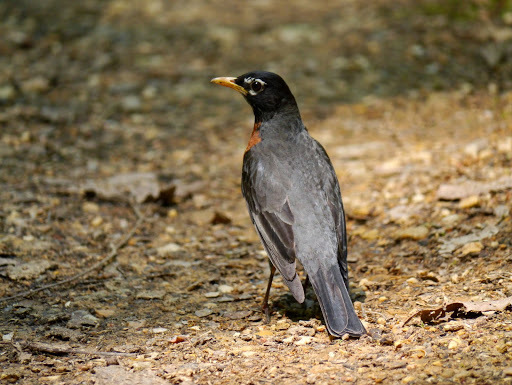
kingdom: Animalia
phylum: Chordata
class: Aves
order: Passeriformes
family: Turdidae
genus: Turdus
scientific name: Turdus migratorius
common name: American robin
